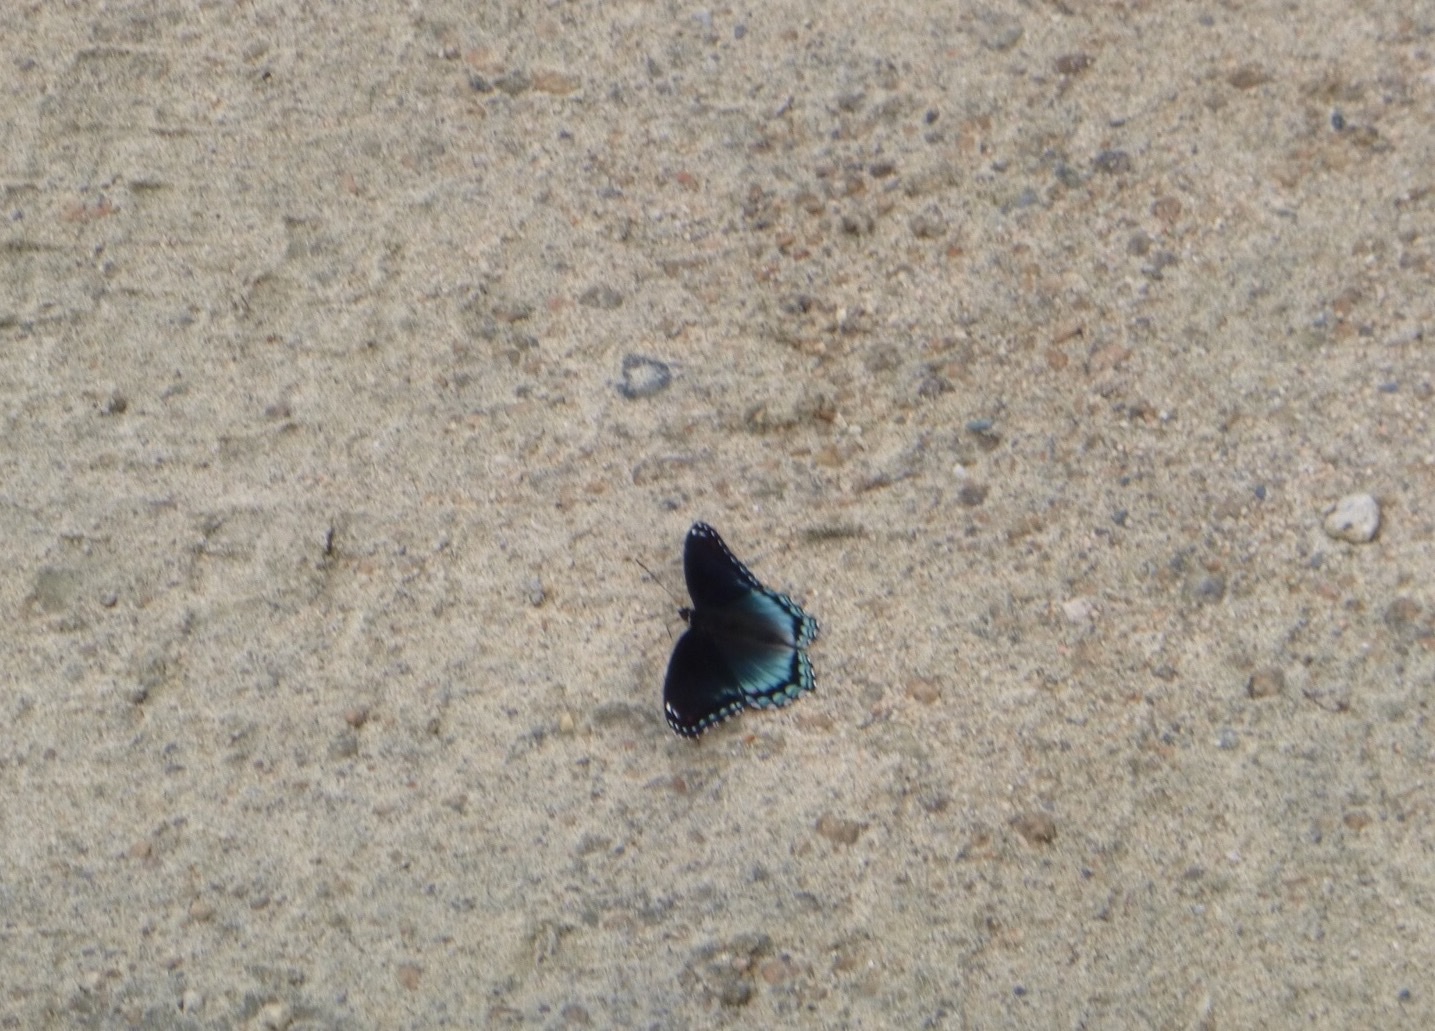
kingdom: Animalia
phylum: Arthropoda
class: Insecta
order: Lepidoptera
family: Nymphalidae
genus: Limenitis
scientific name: Limenitis astyanax
